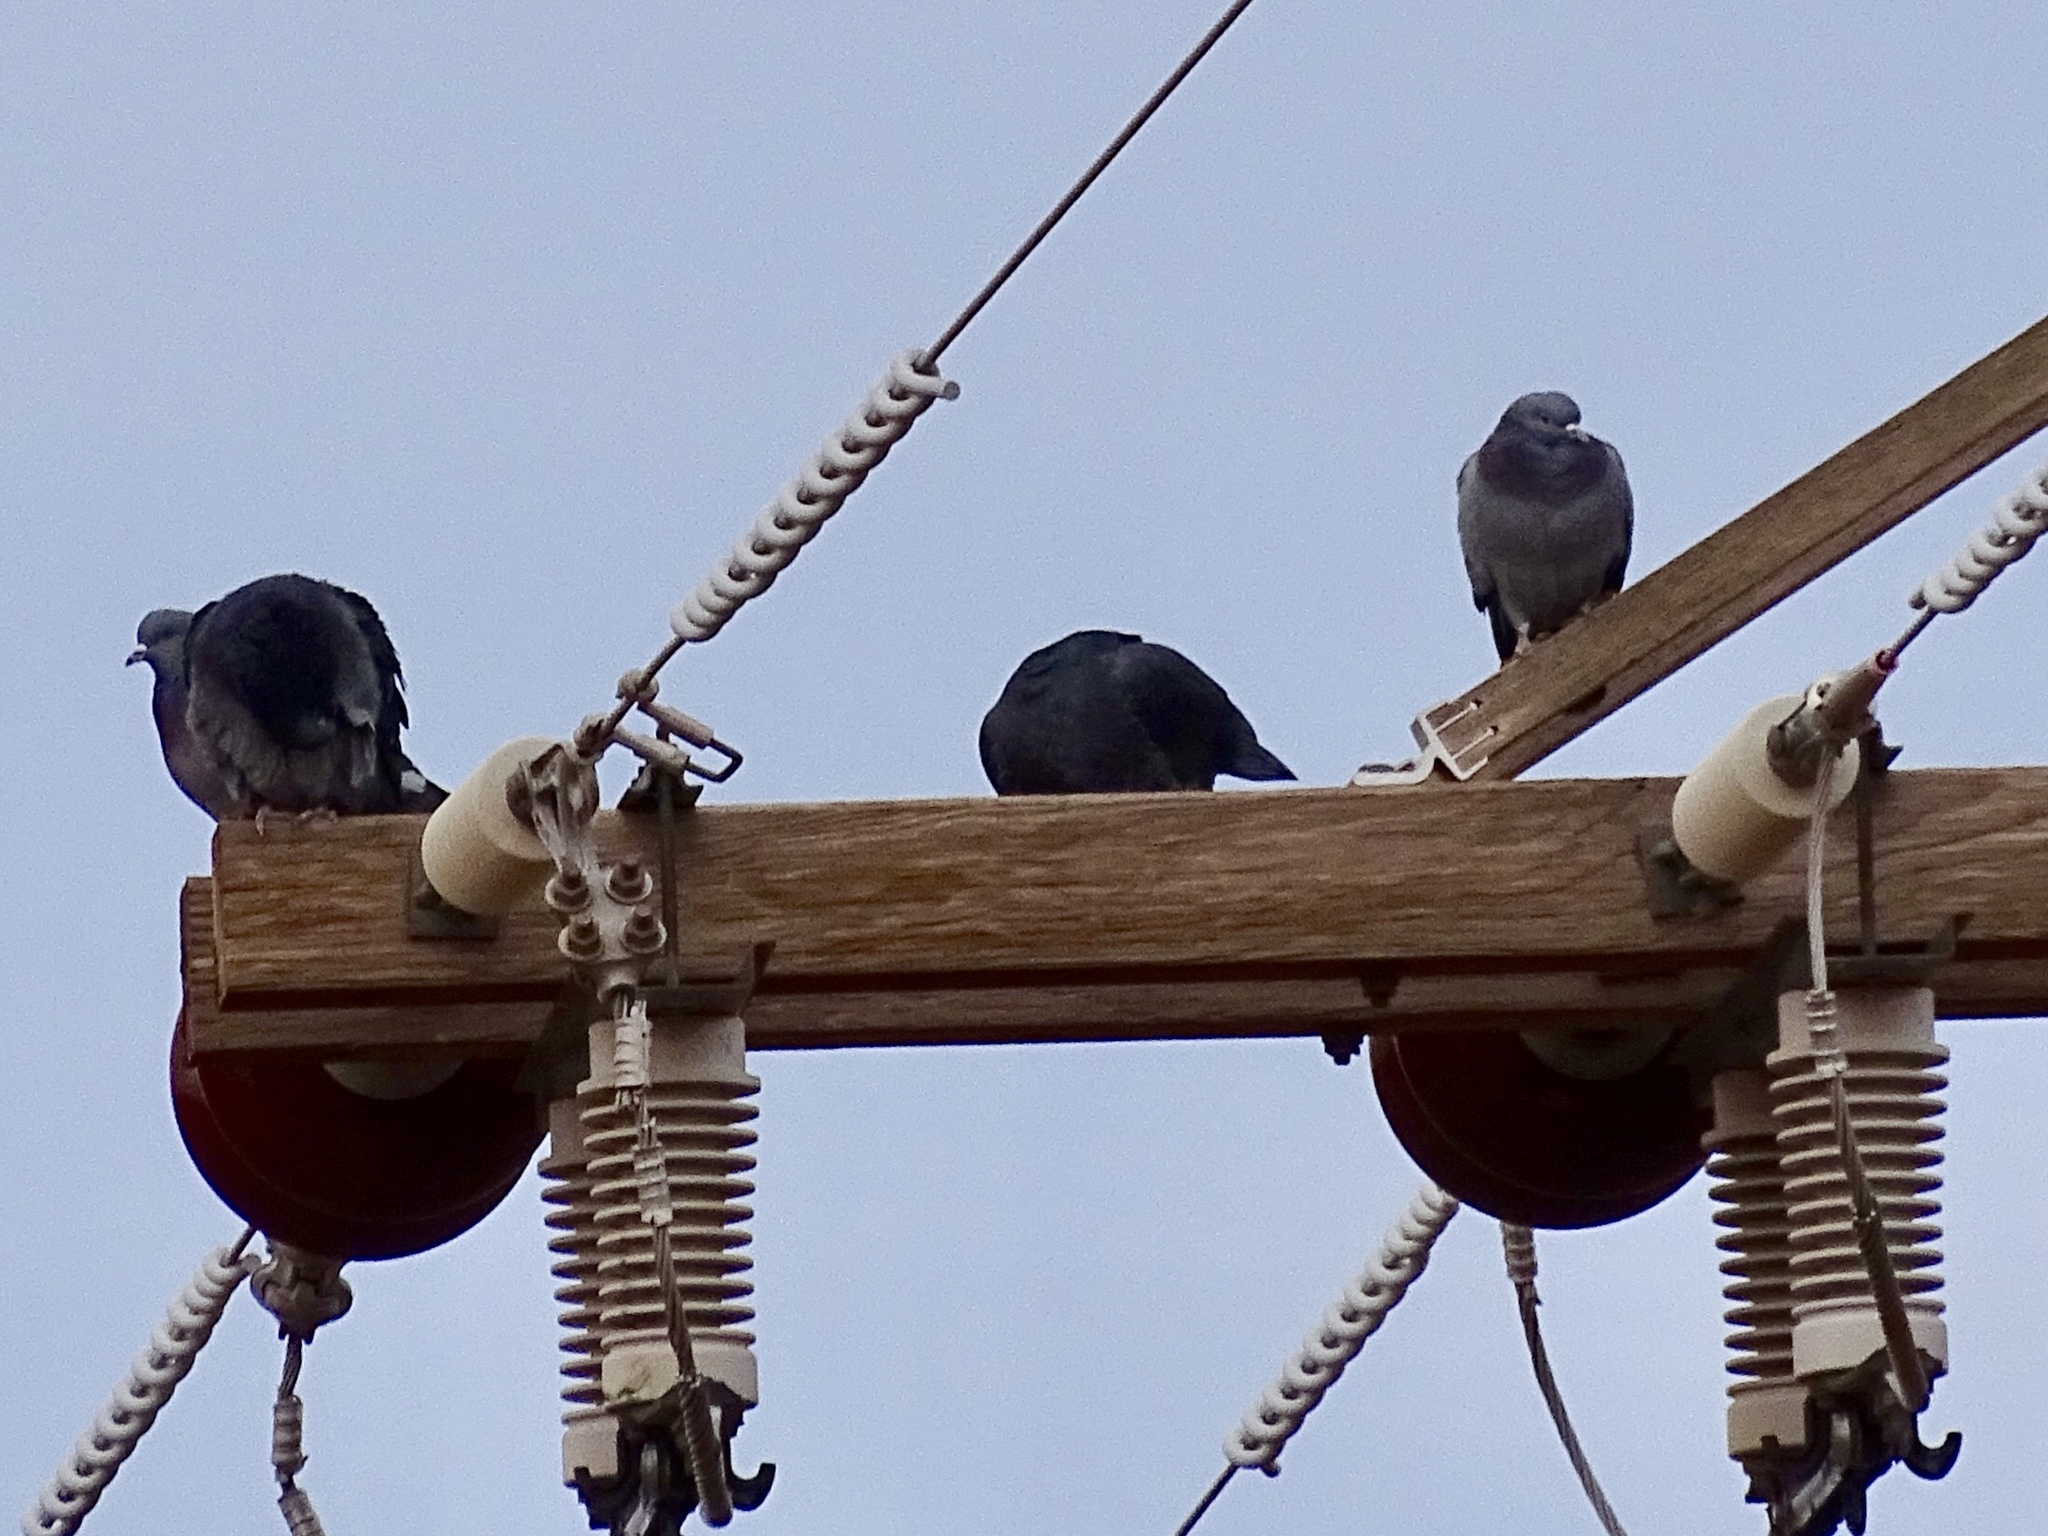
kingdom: Animalia
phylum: Chordata
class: Aves
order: Columbiformes
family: Columbidae
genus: Columba
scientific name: Columba livia
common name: Rock pigeon
